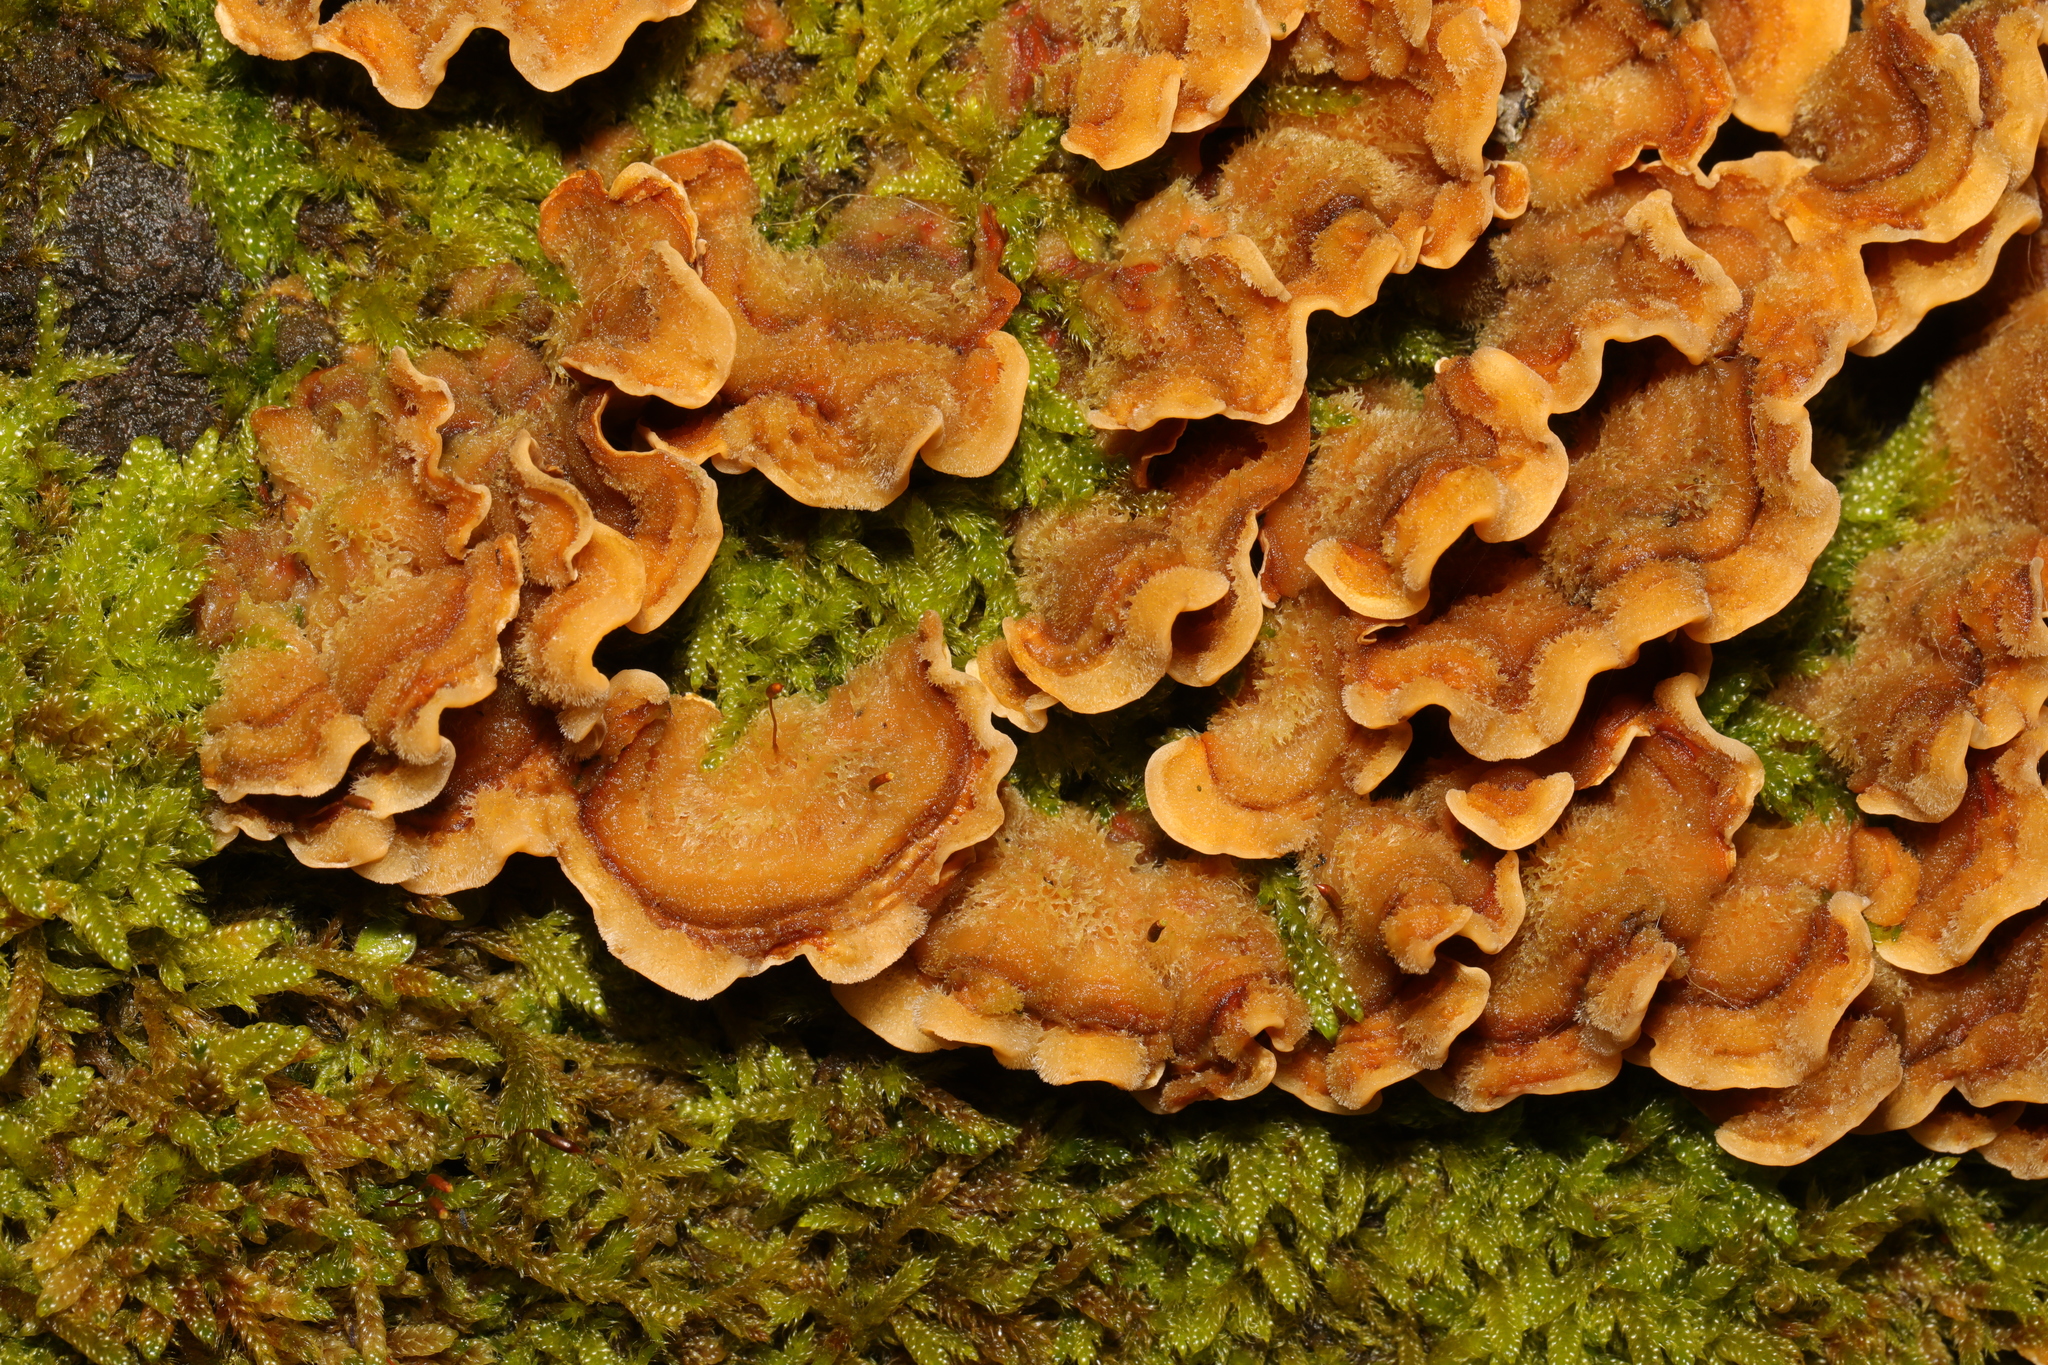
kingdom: Fungi
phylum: Basidiomycota
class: Agaricomycetes
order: Russulales
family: Stereaceae
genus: Stereum
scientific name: Stereum hirsutum
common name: Hairy curtain crust
